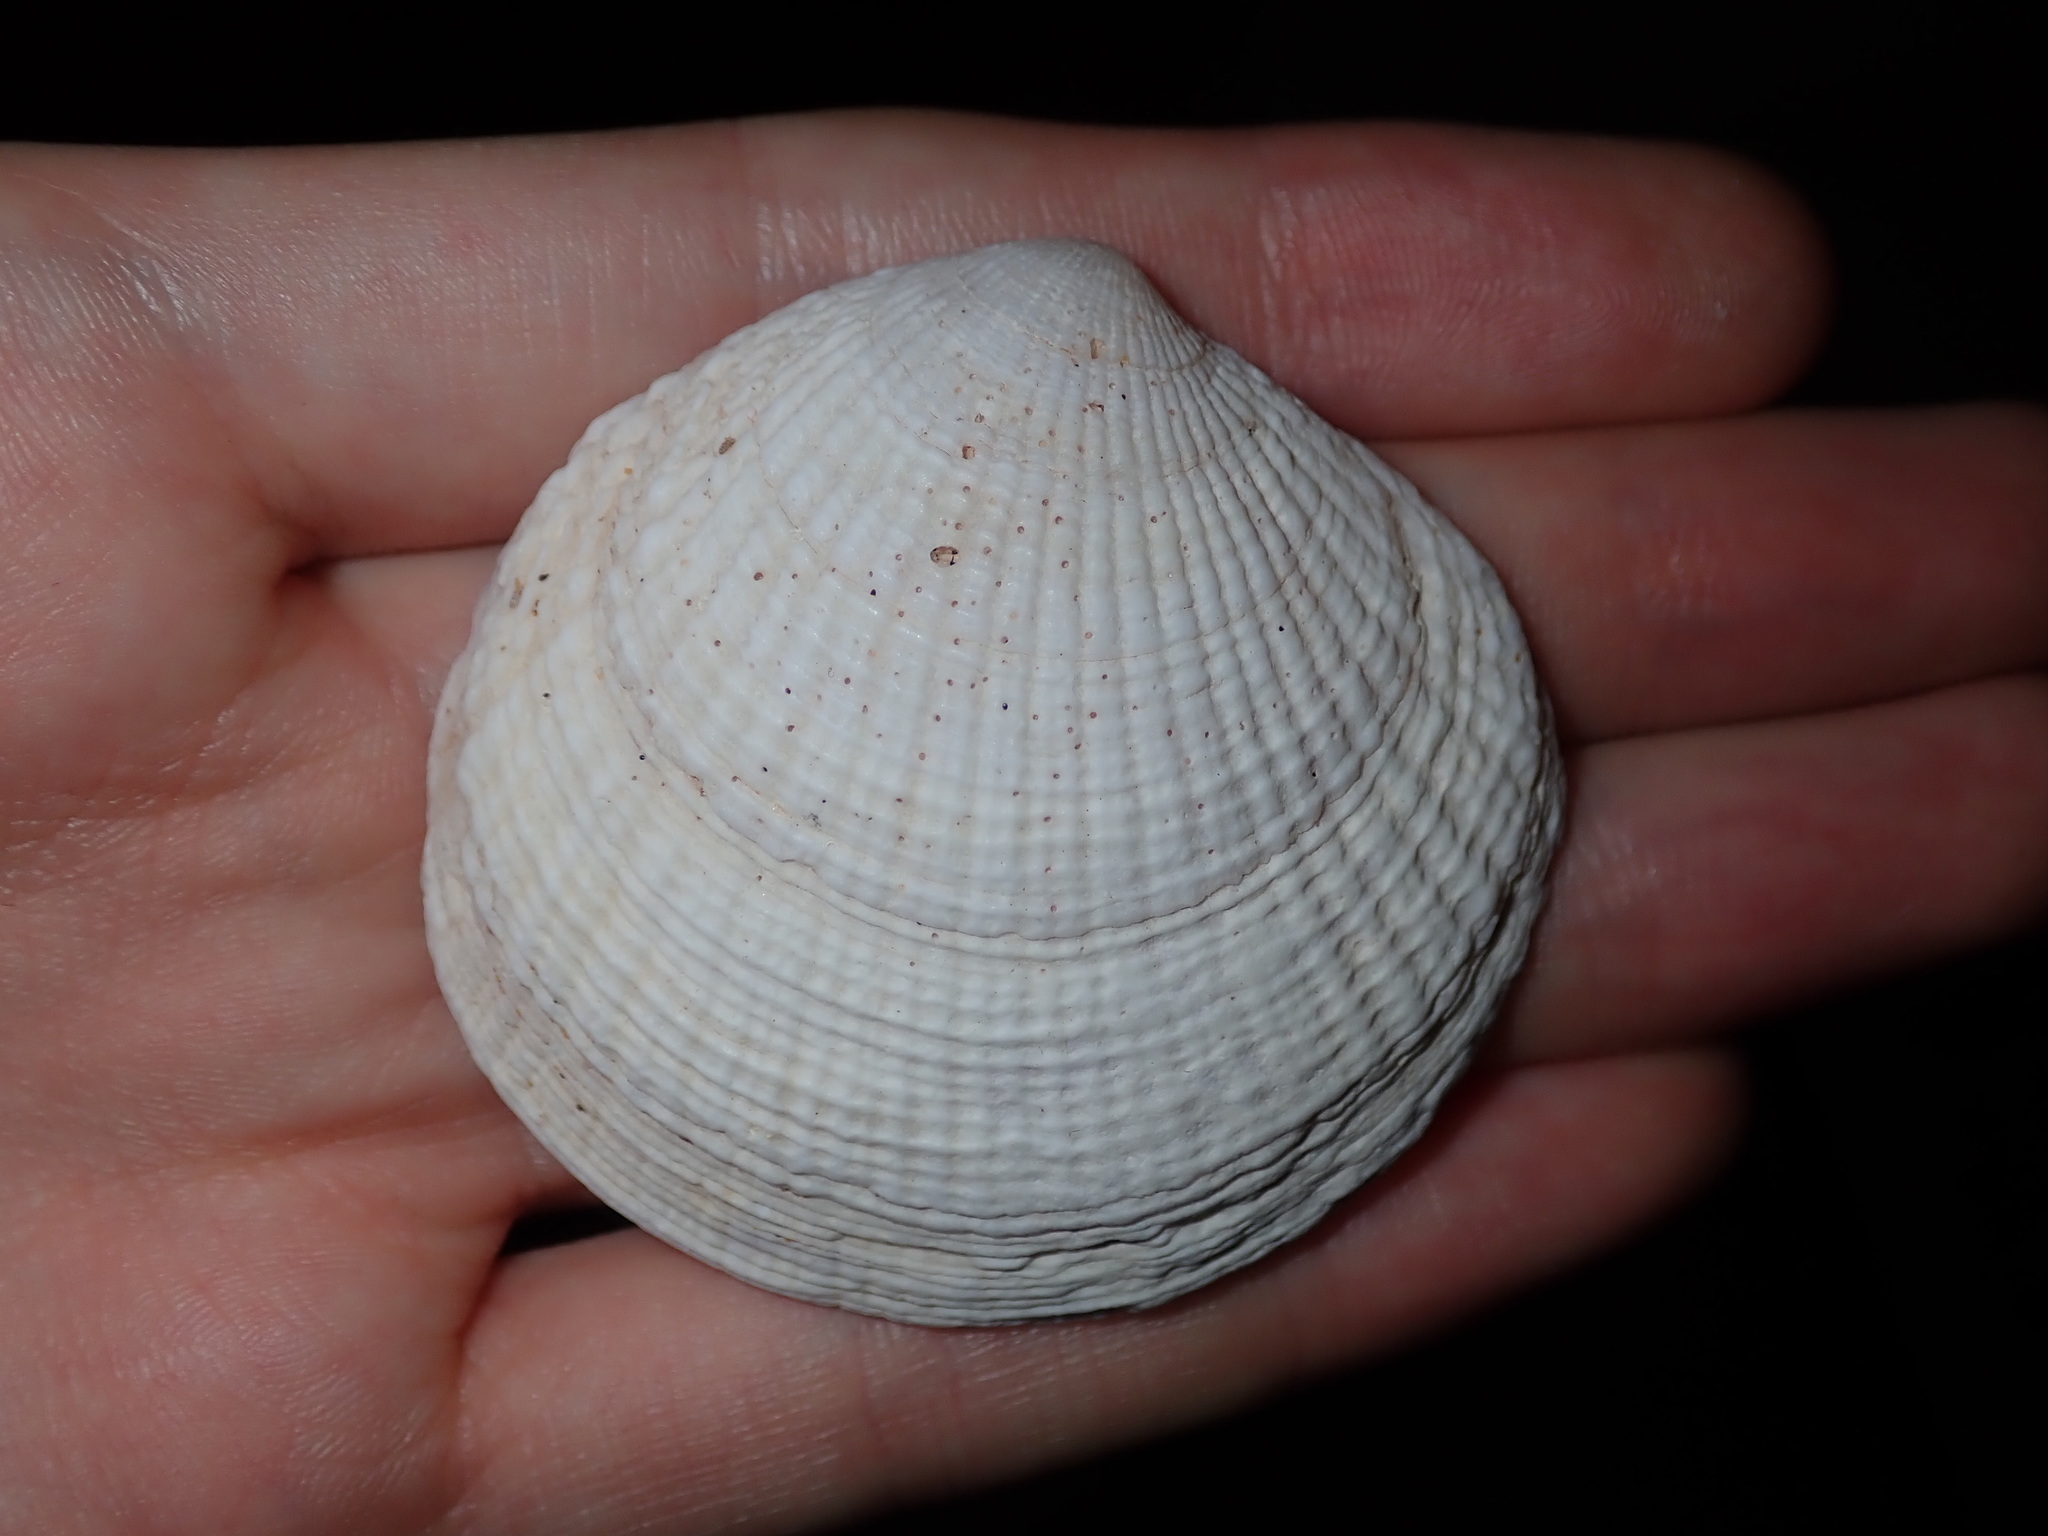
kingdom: Animalia
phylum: Mollusca
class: Bivalvia
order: Lucinida
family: Lucinidae
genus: Codakia
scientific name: Codakia rugifera
